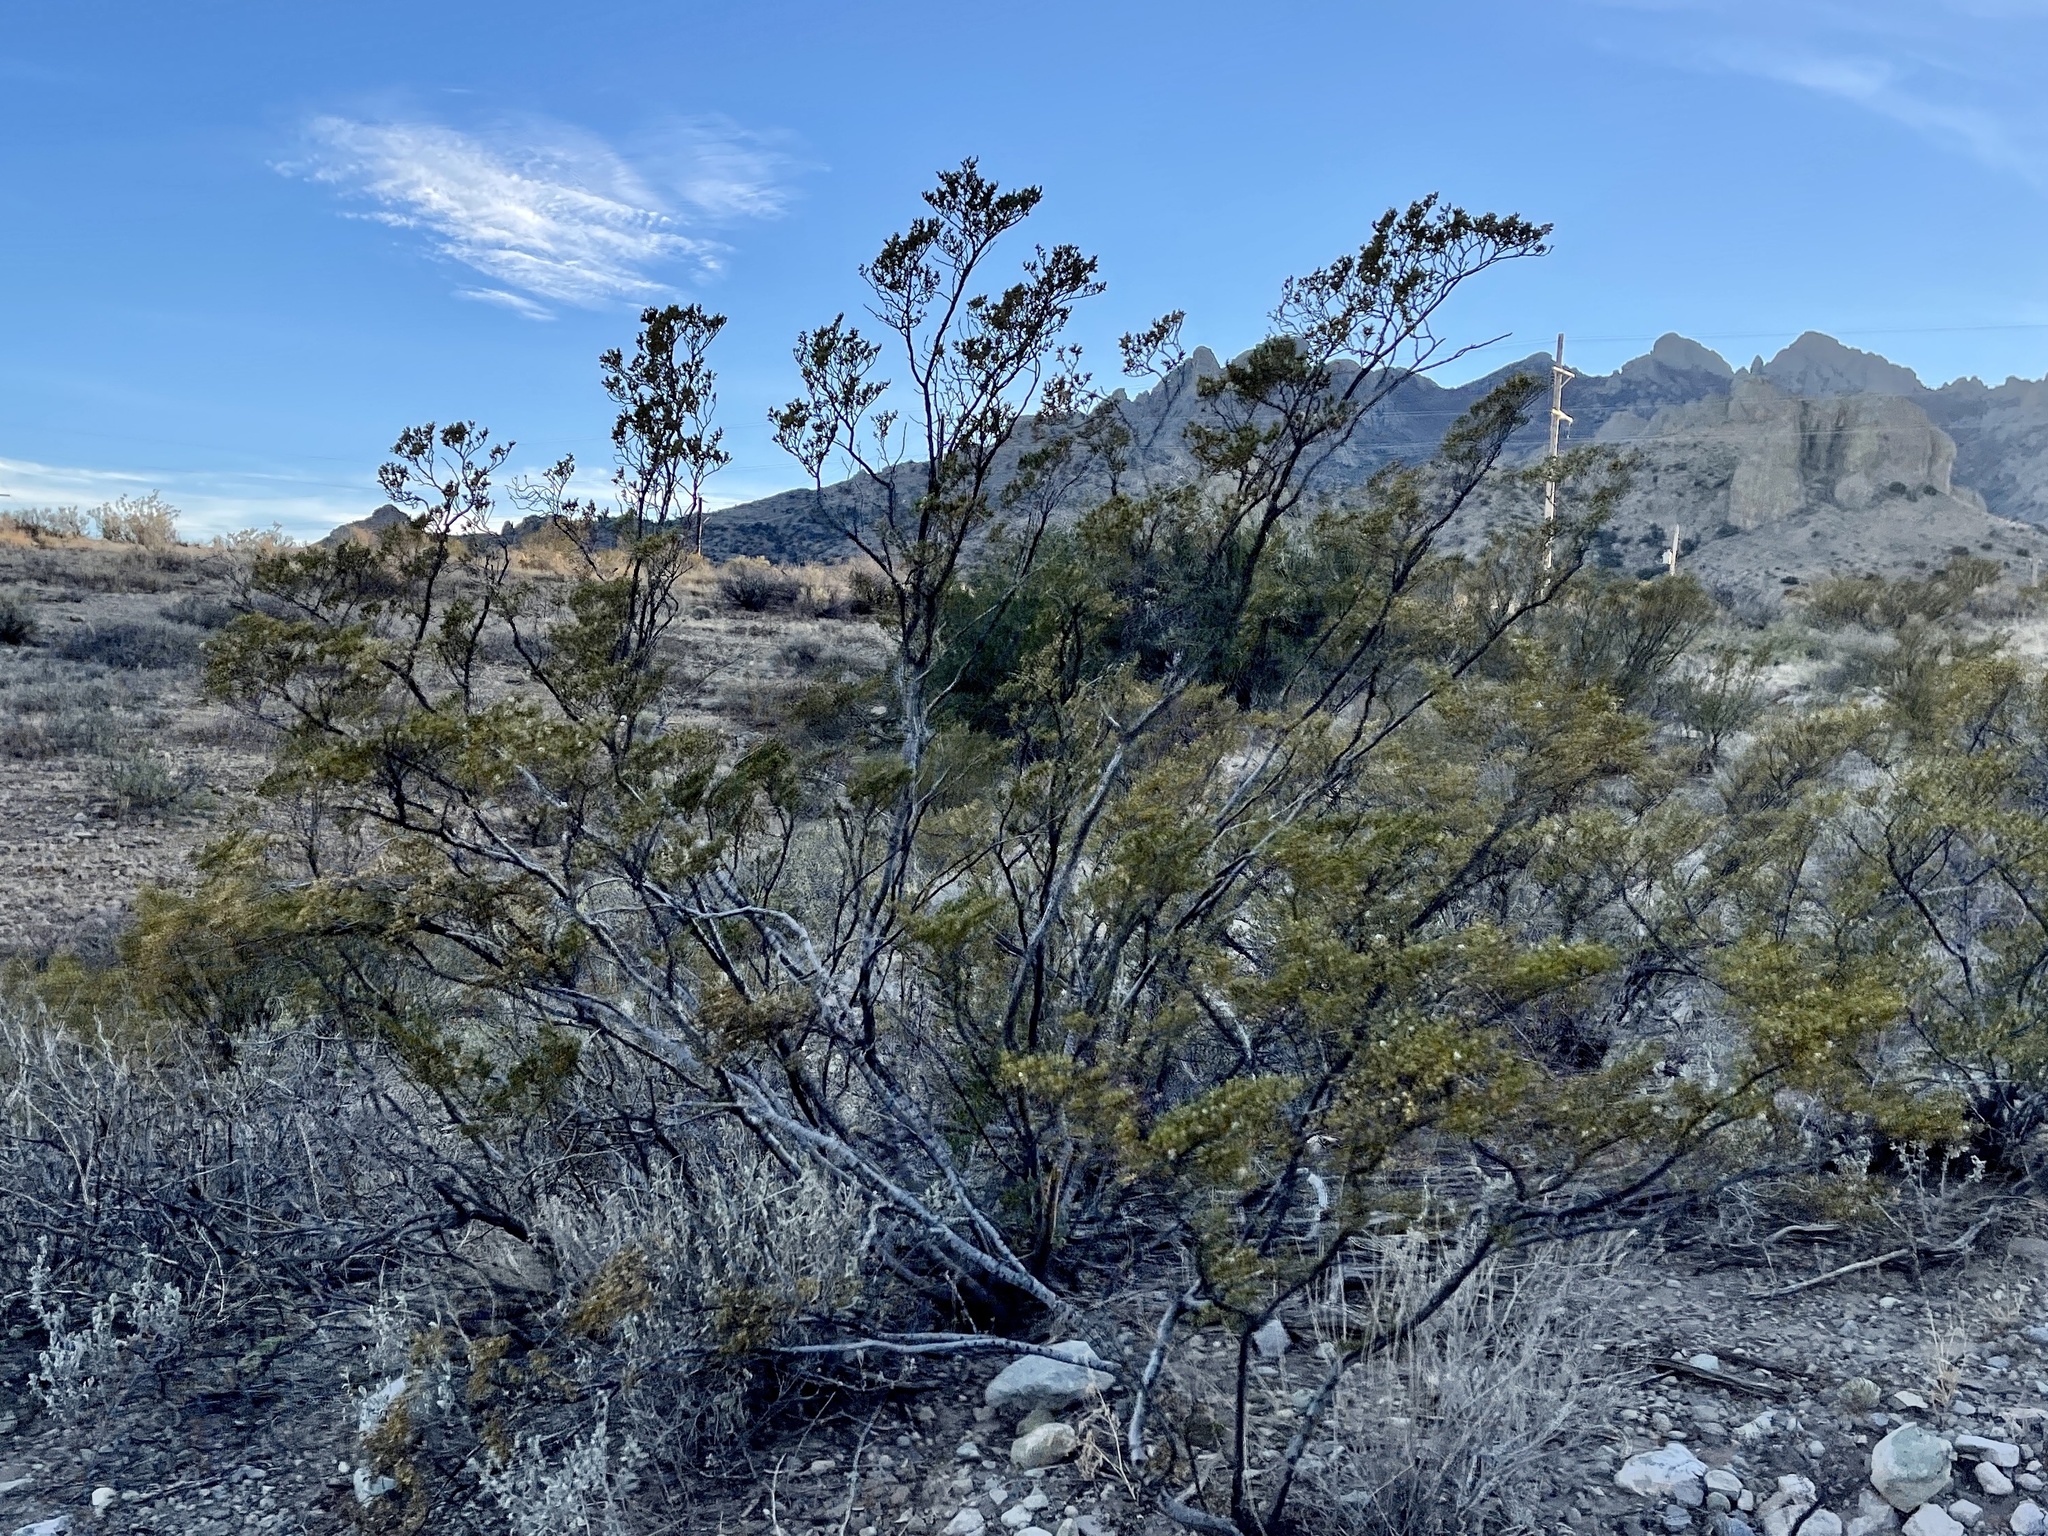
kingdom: Plantae
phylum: Tracheophyta
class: Magnoliopsida
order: Zygophyllales
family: Zygophyllaceae
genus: Larrea
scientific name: Larrea tridentata
